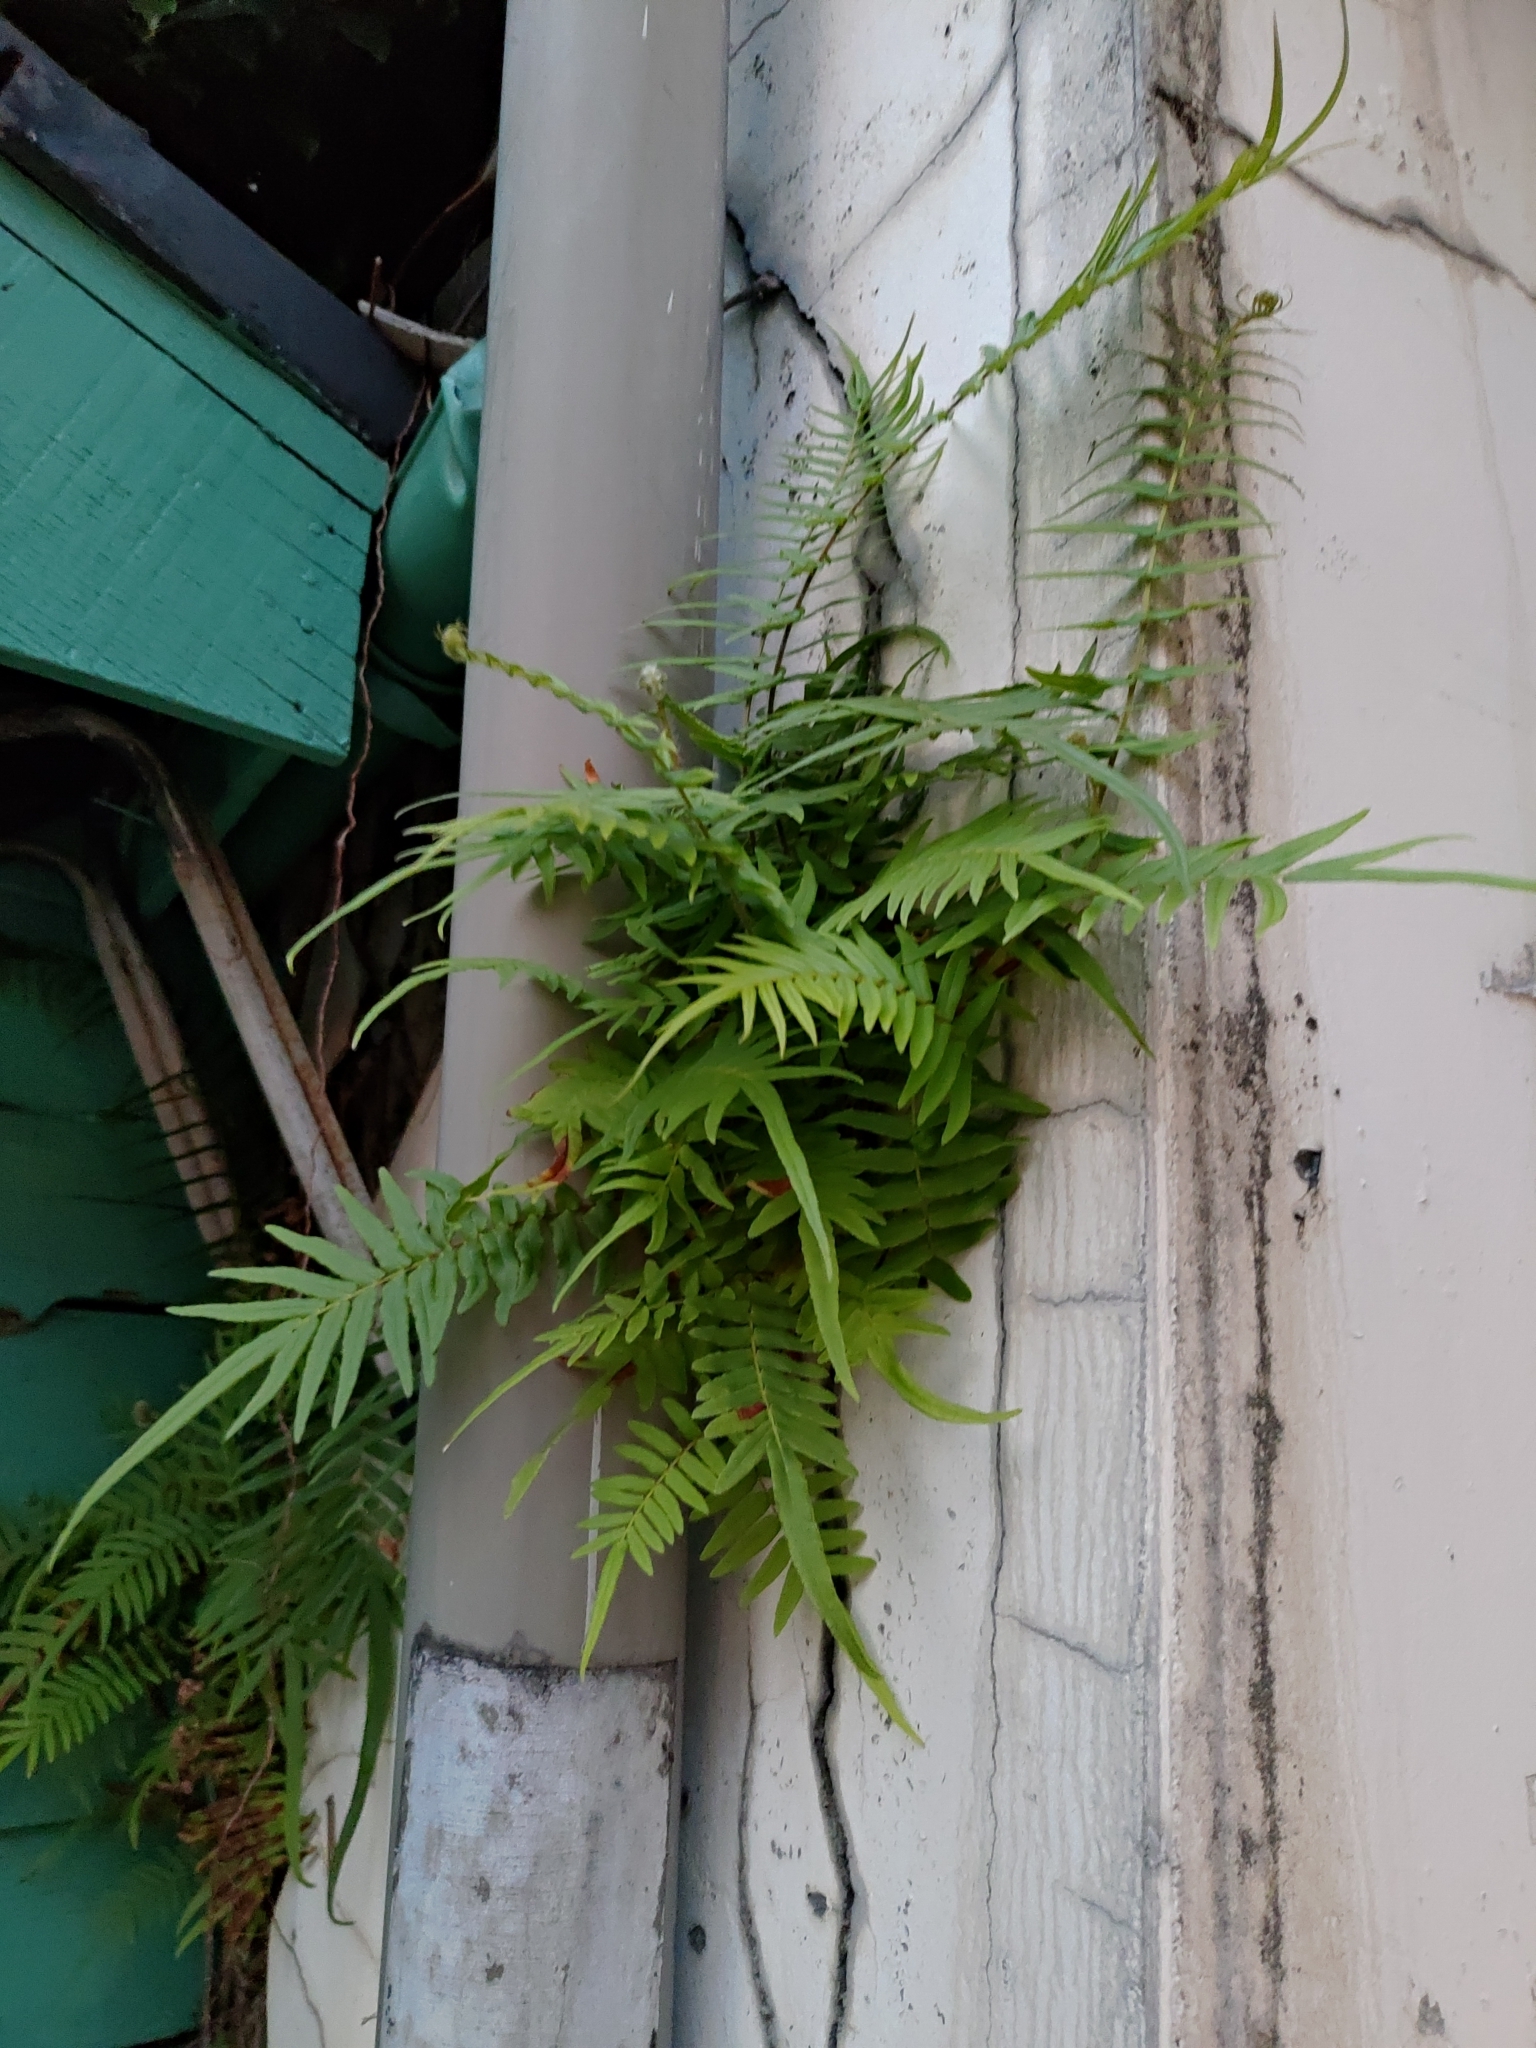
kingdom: Plantae
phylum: Tracheophyta
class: Polypodiopsida
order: Polypodiales
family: Pteridaceae
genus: Pteris
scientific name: Pteris vittata
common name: Ladder brake
